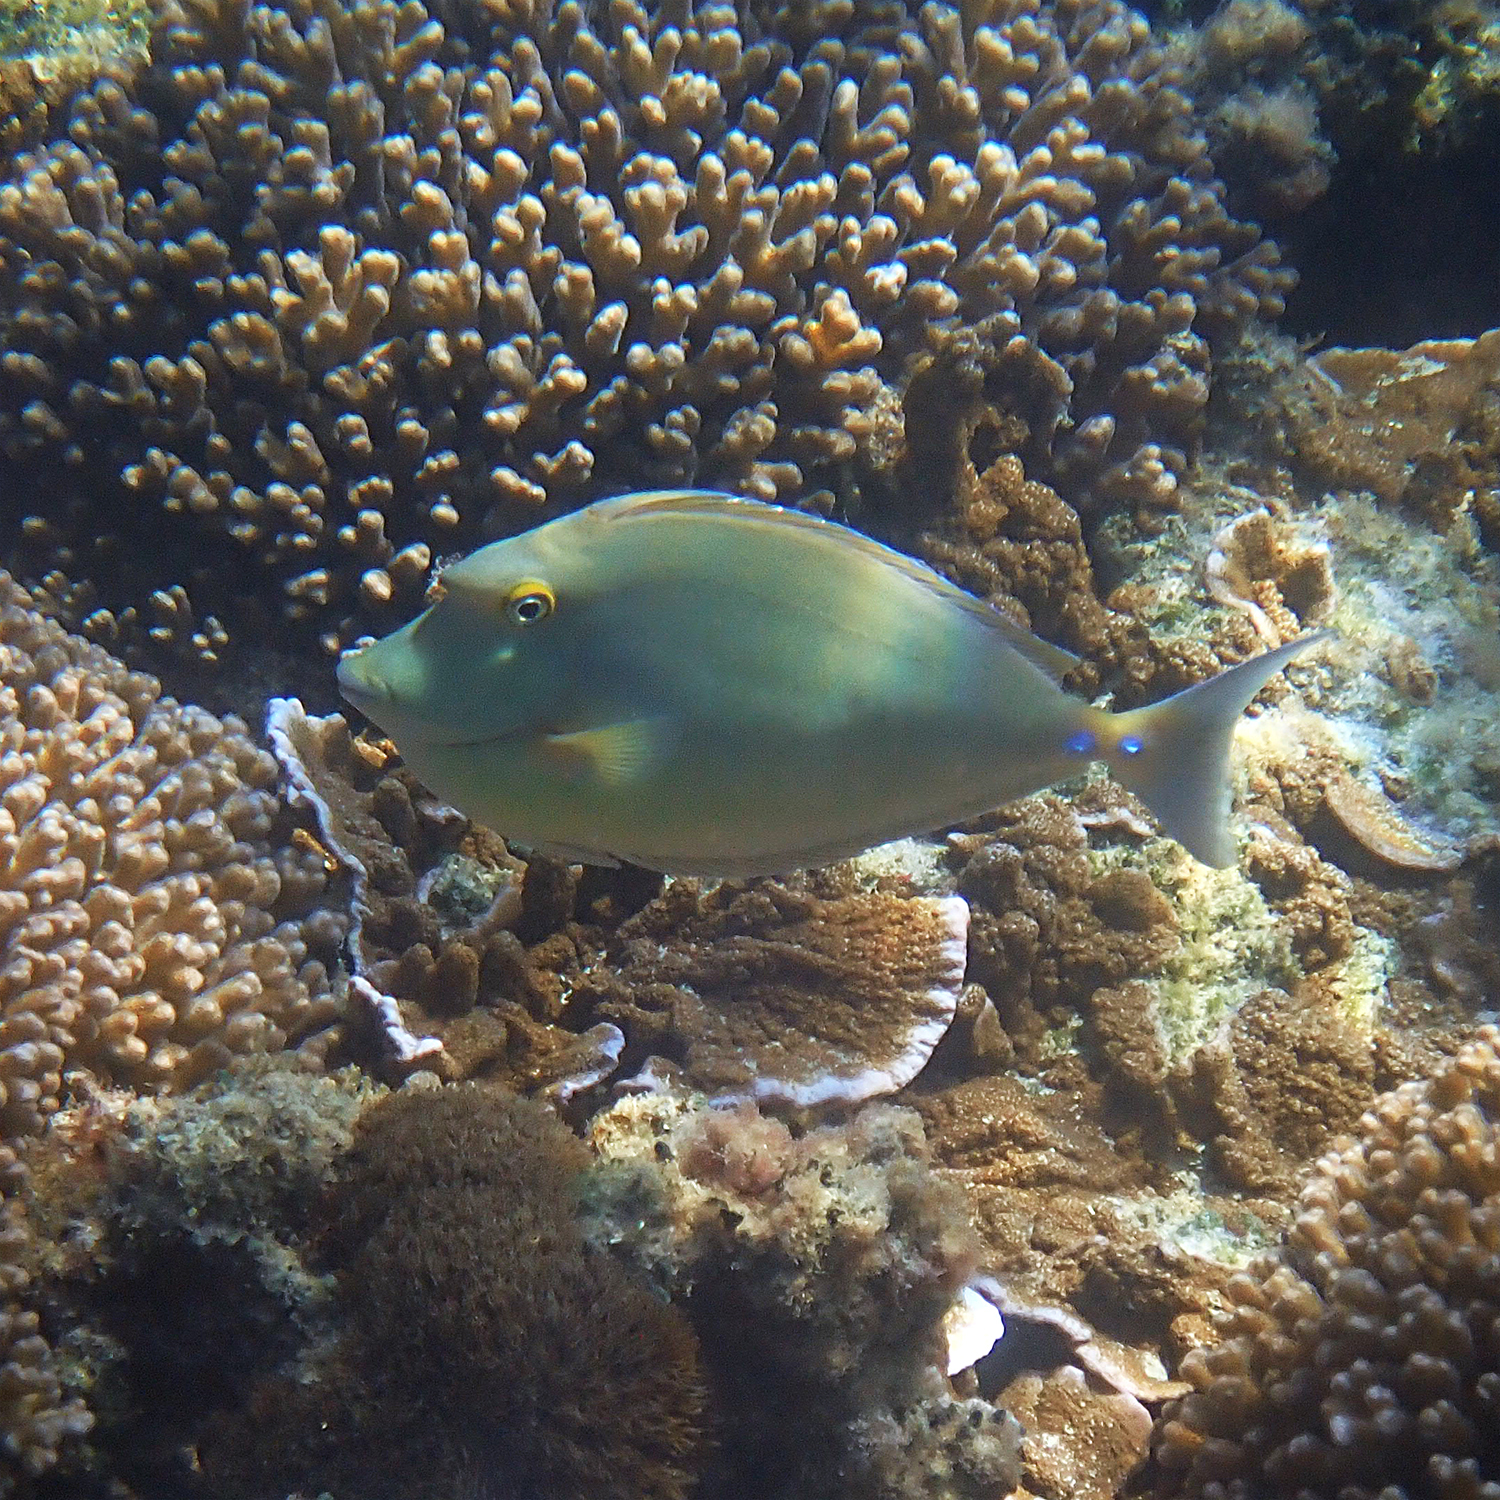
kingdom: Animalia
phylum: Chordata
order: Perciformes
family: Acanthuridae
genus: Naso
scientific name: Naso unicornis
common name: Bluespine unicornfish
